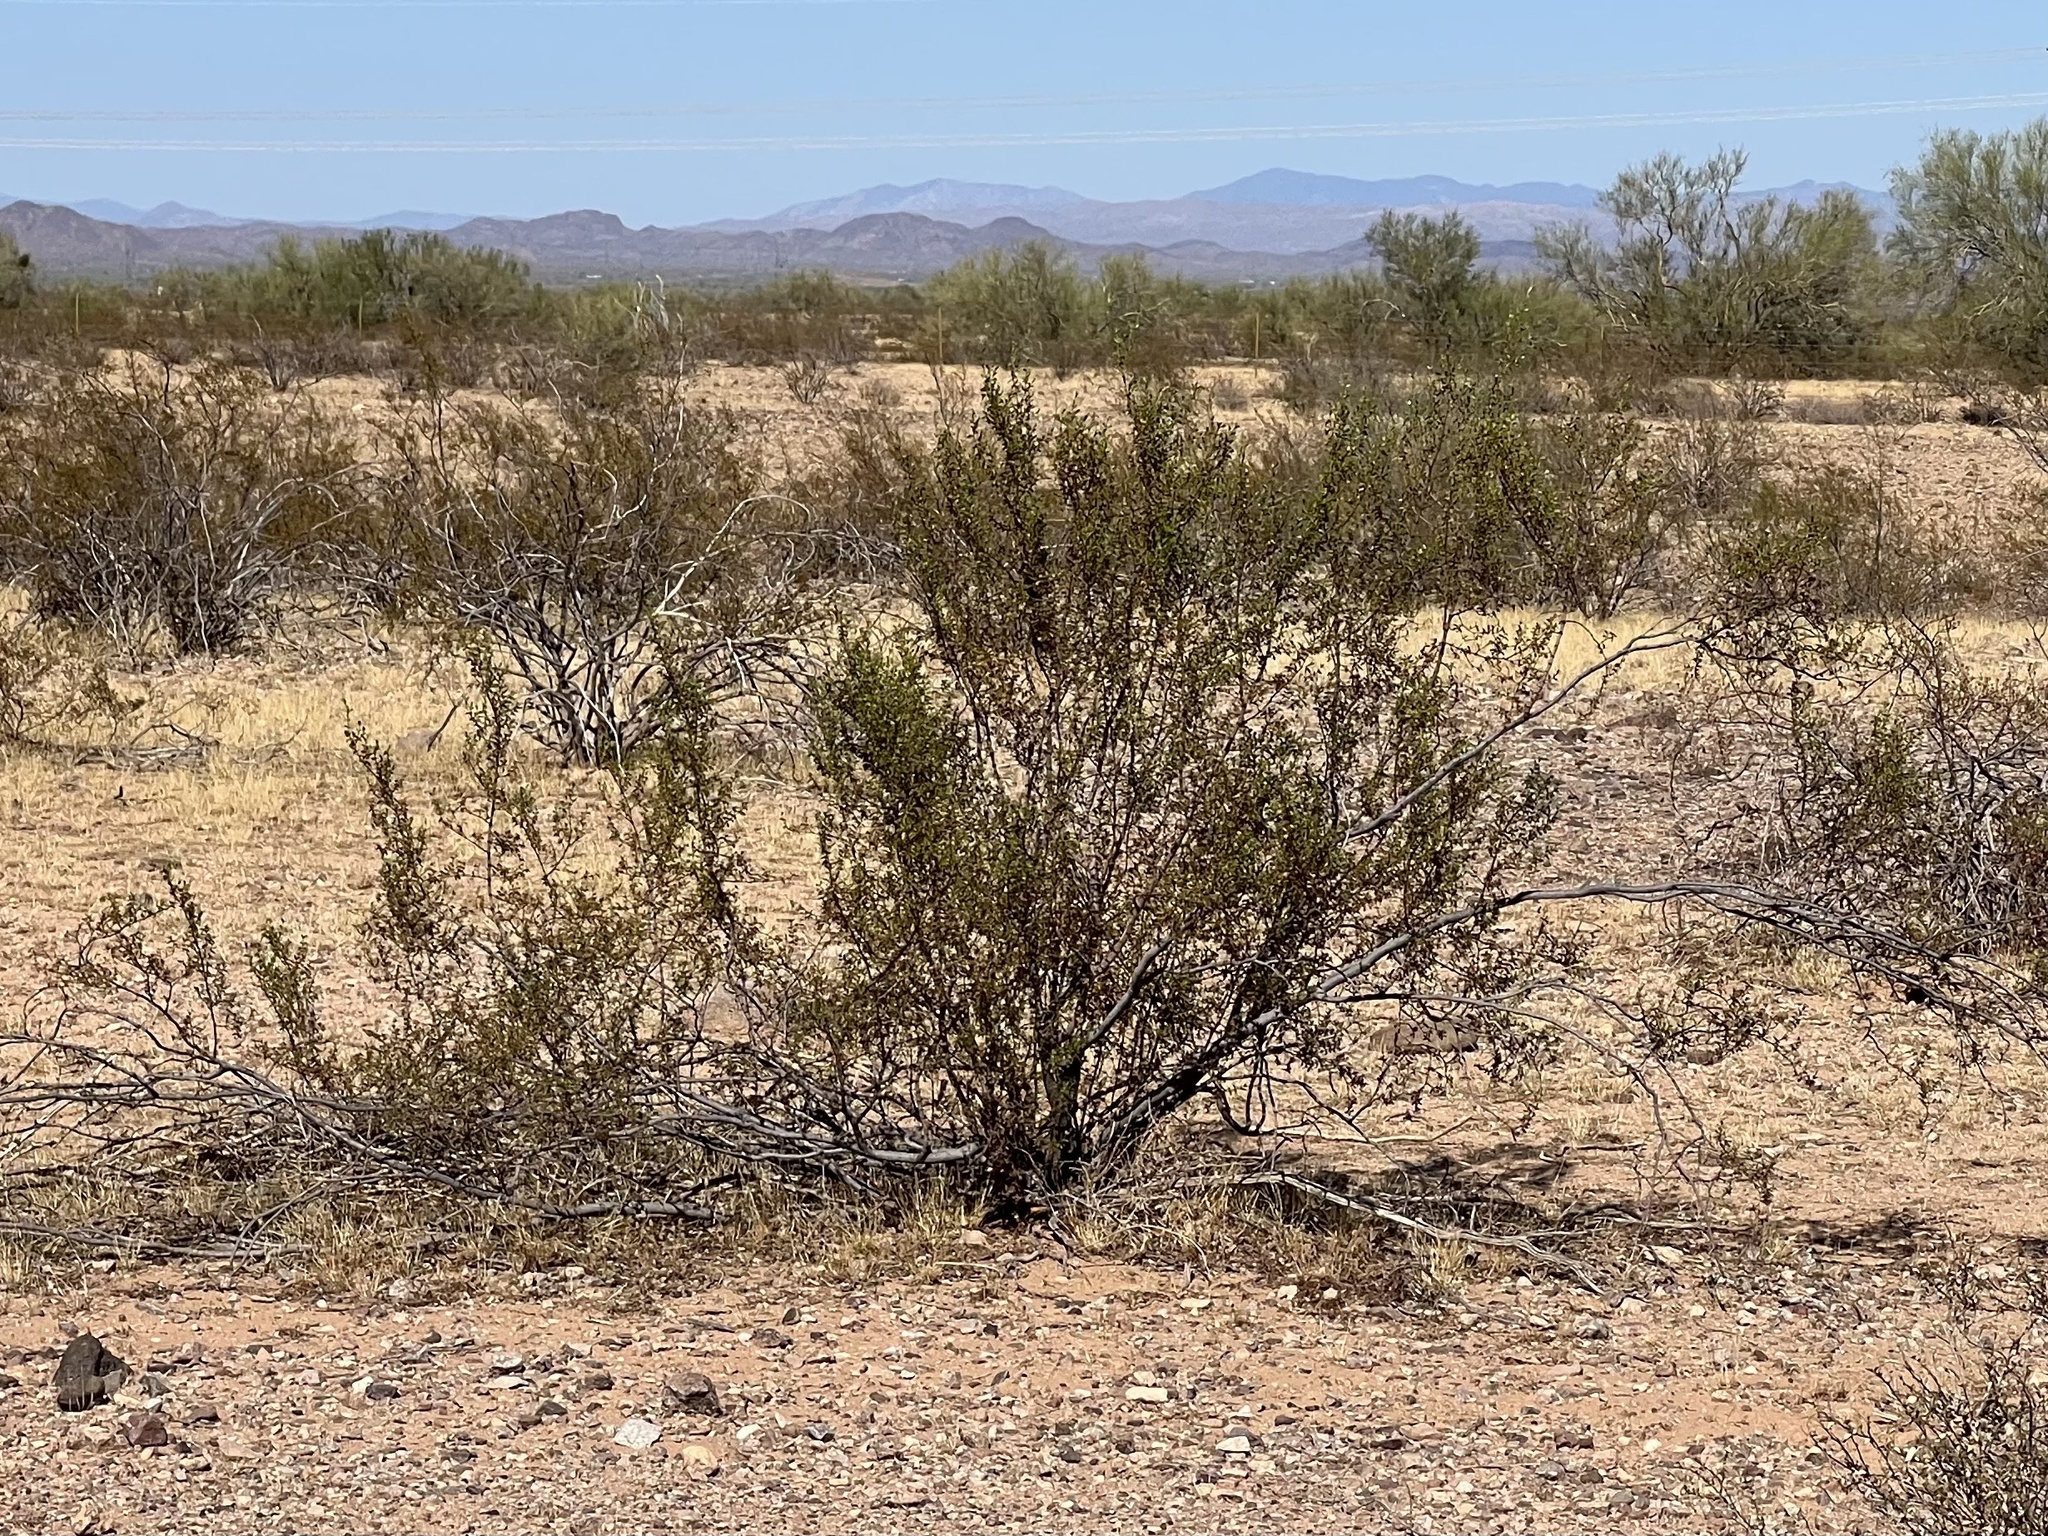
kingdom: Plantae
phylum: Tracheophyta
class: Magnoliopsida
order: Zygophyllales
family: Zygophyllaceae
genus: Larrea
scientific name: Larrea tridentata
